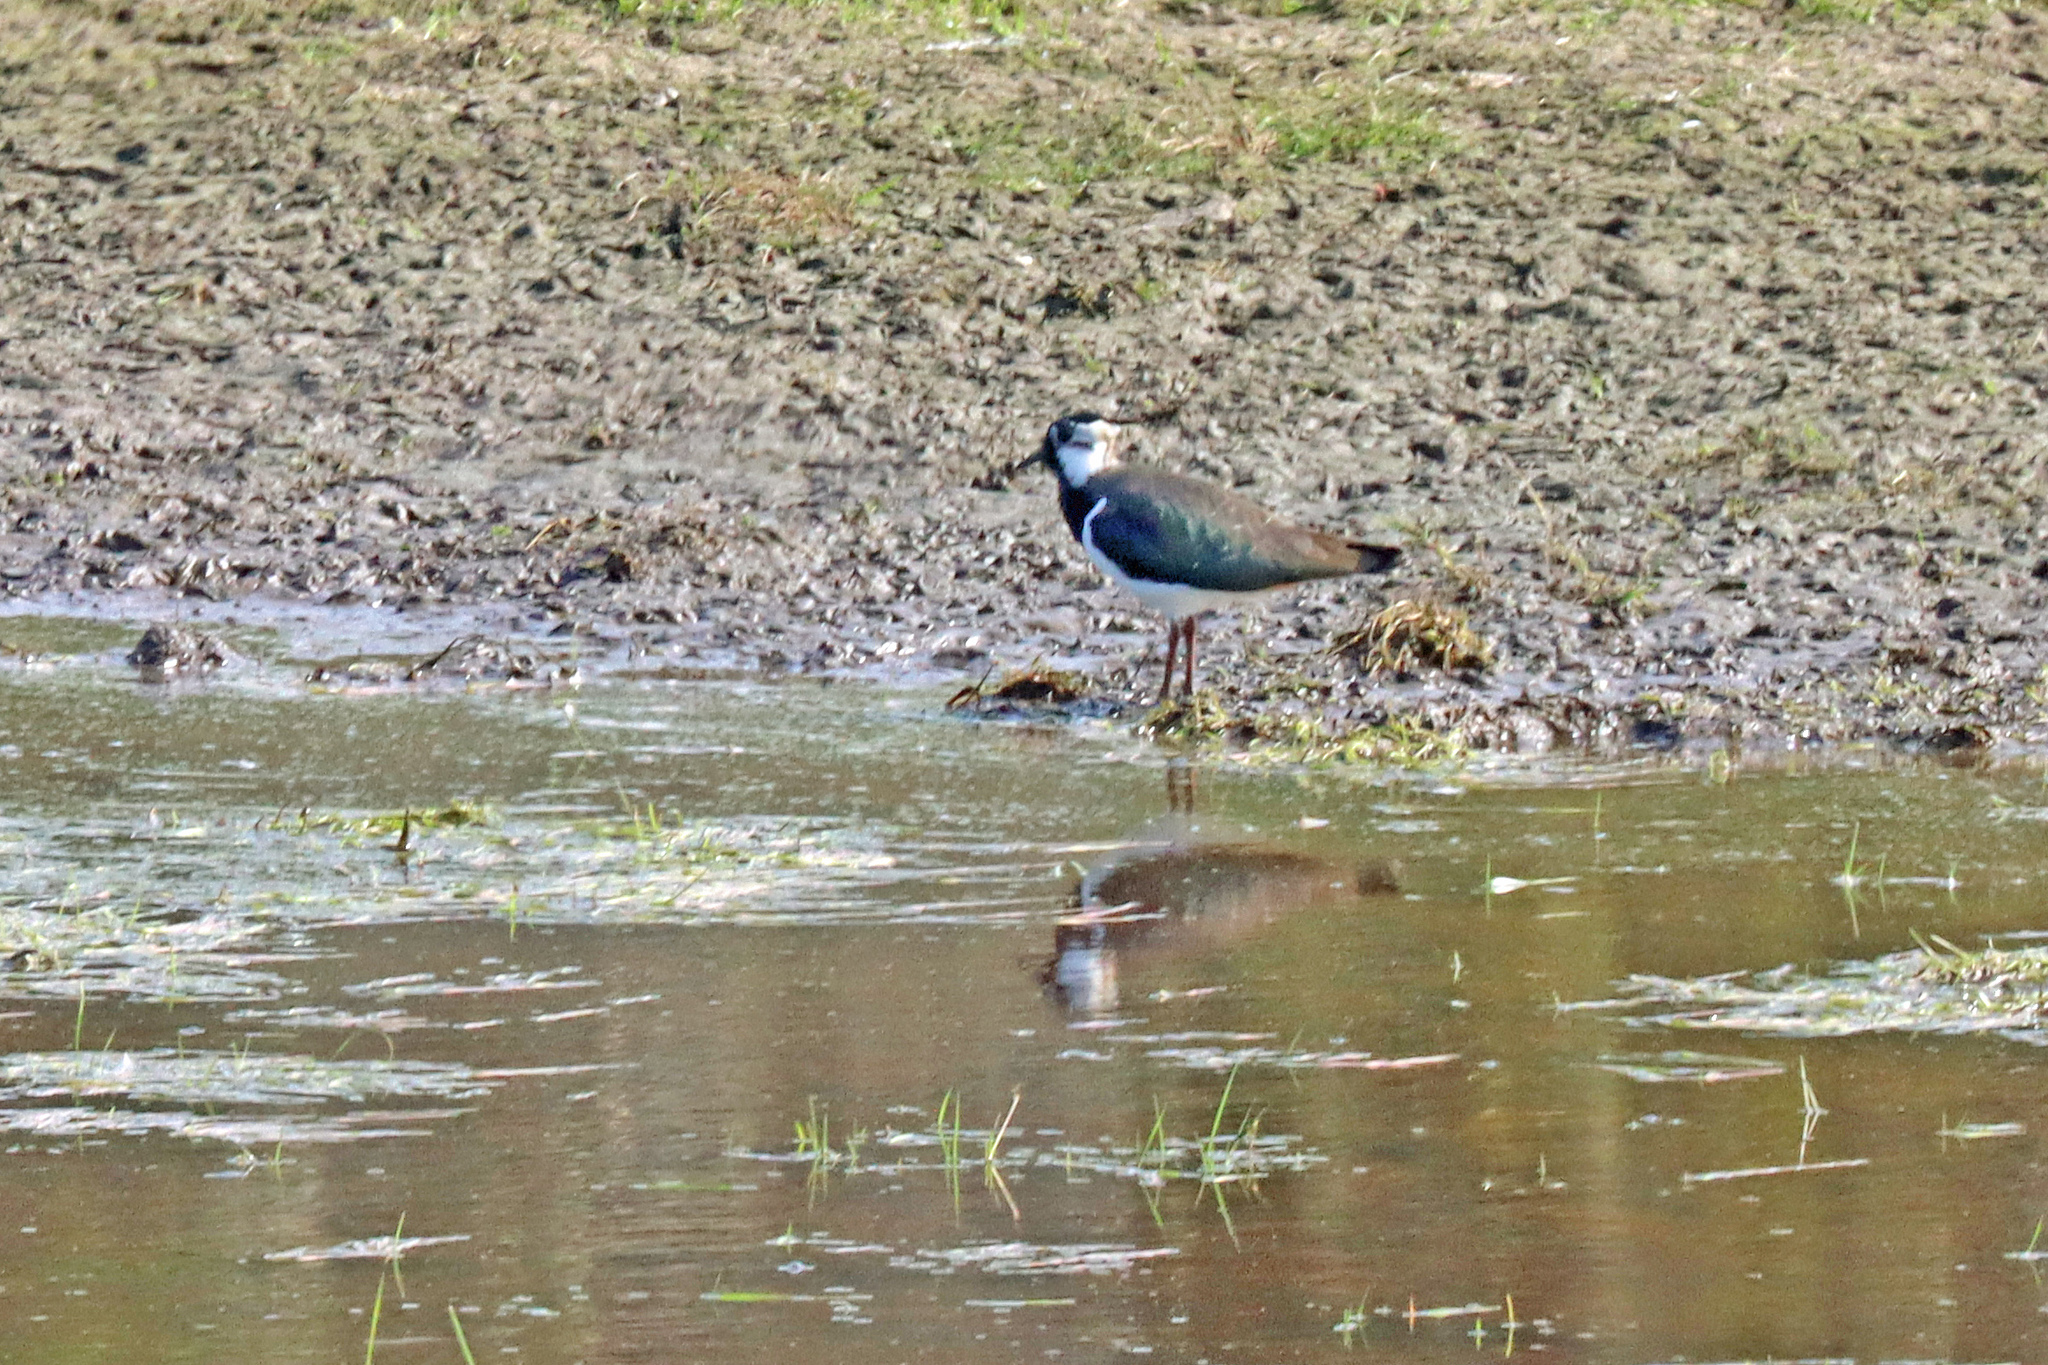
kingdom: Animalia
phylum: Chordata
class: Aves
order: Charadriiformes
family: Charadriidae
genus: Vanellus
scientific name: Vanellus vanellus
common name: Northern lapwing
